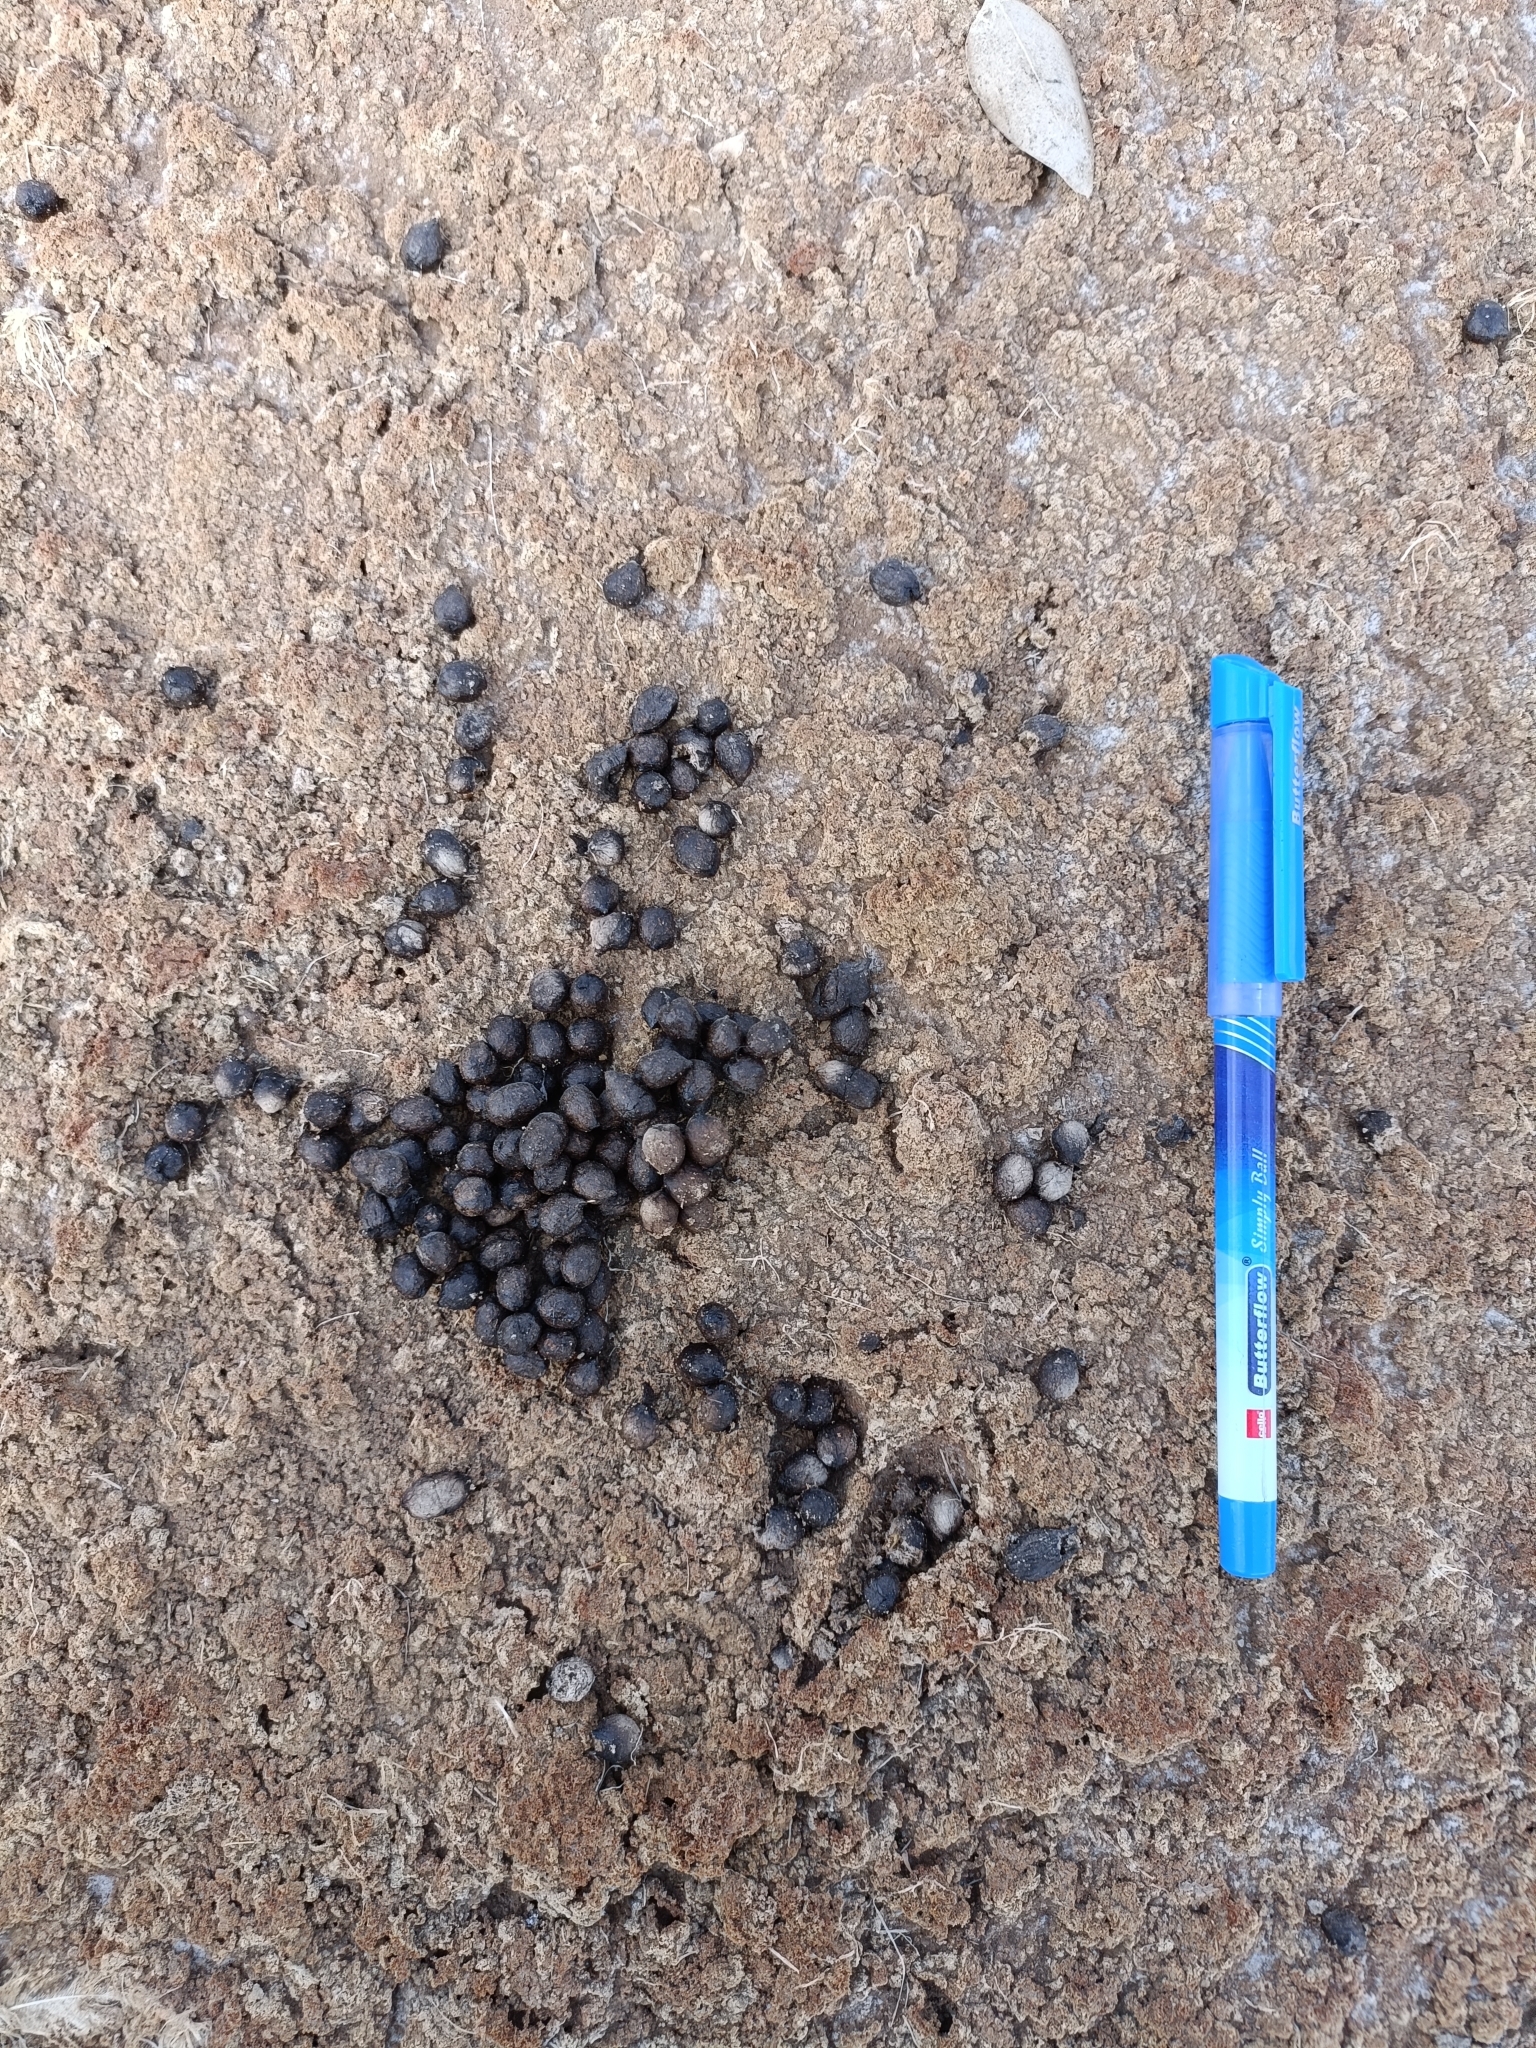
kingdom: Animalia
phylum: Chordata
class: Mammalia
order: Artiodactyla
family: Bovidae
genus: Gazella
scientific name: Gazella bennettii
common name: Indian gazelle
